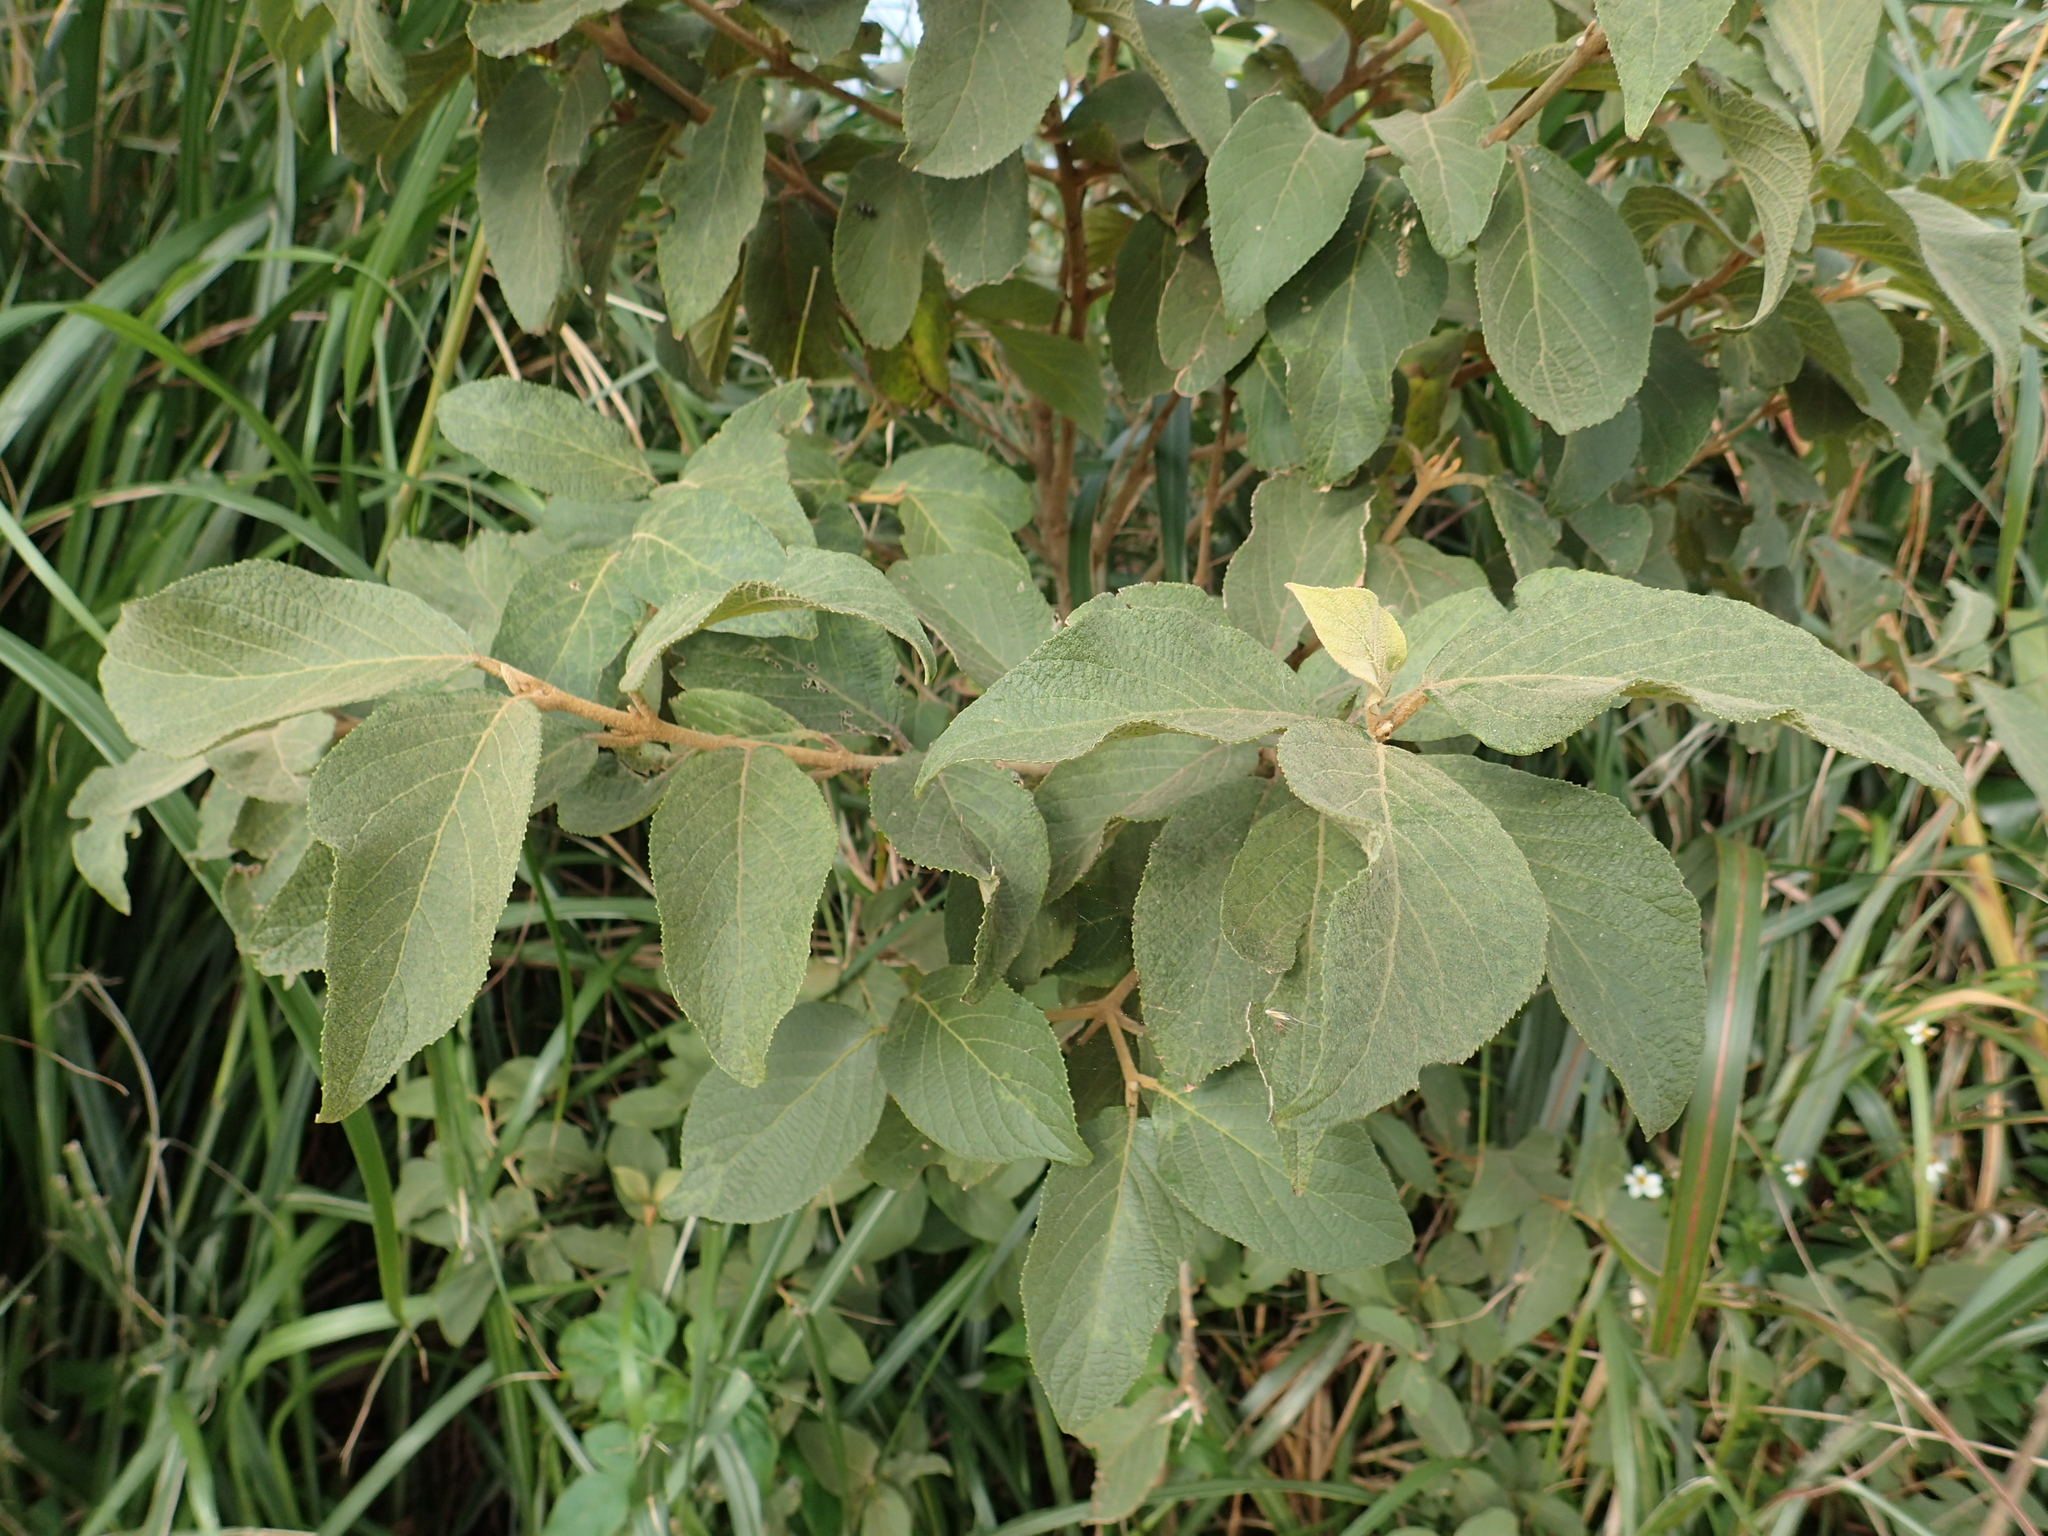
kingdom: Plantae
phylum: Tracheophyta
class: Magnoliopsida
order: Lamiales
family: Lamiaceae
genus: Callicarpa
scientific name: Callicarpa pedunculata
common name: Velvetleaf
